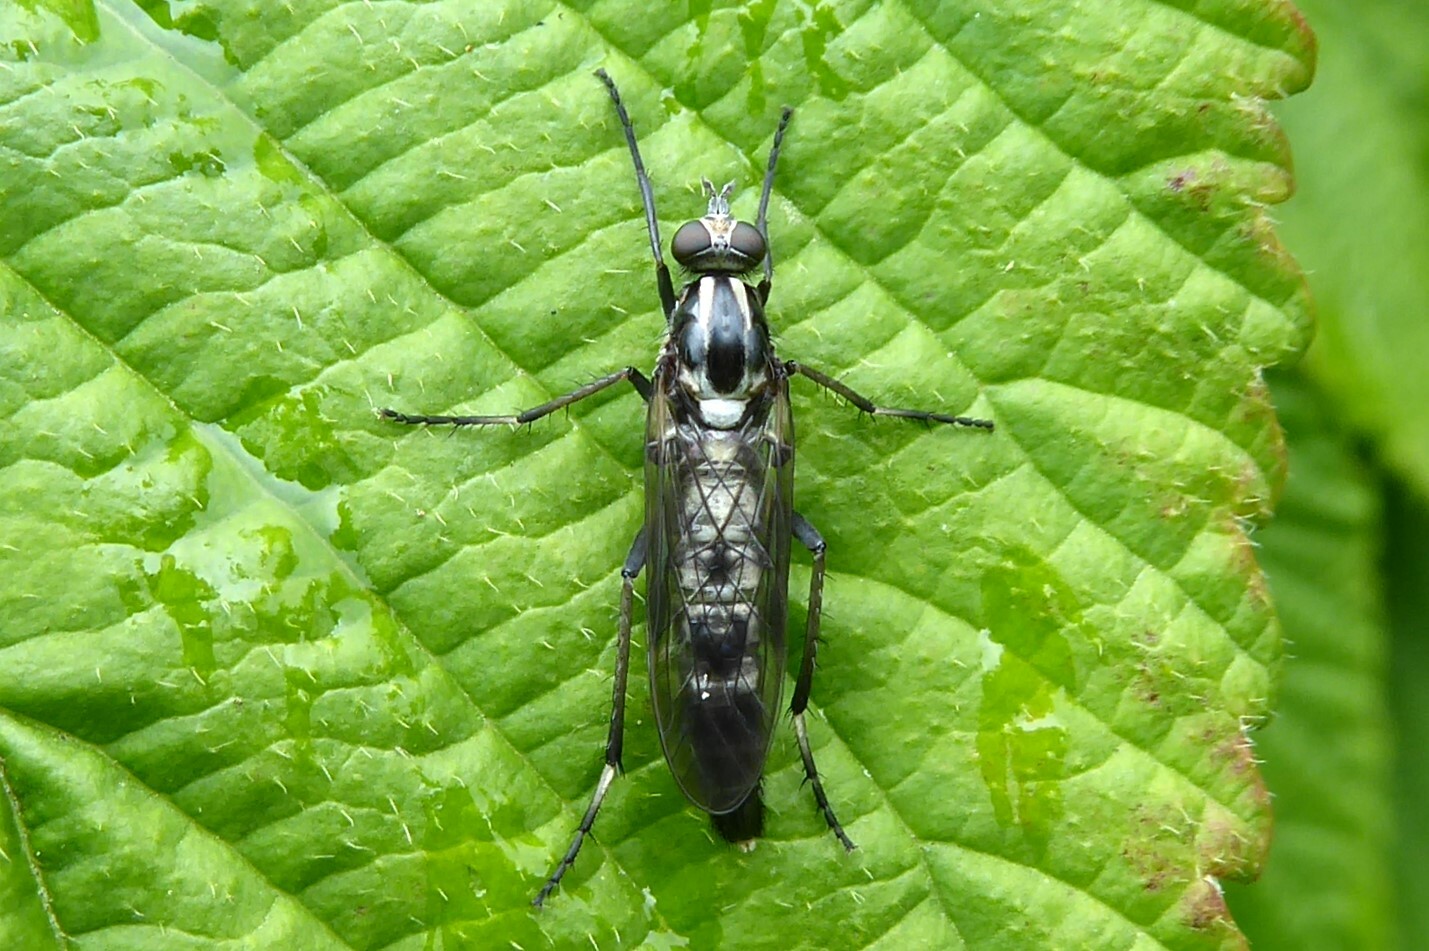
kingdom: Animalia
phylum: Arthropoda
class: Insecta
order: Diptera
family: Therevidae
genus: Anabarhynchus
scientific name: Anabarhynchus micans
